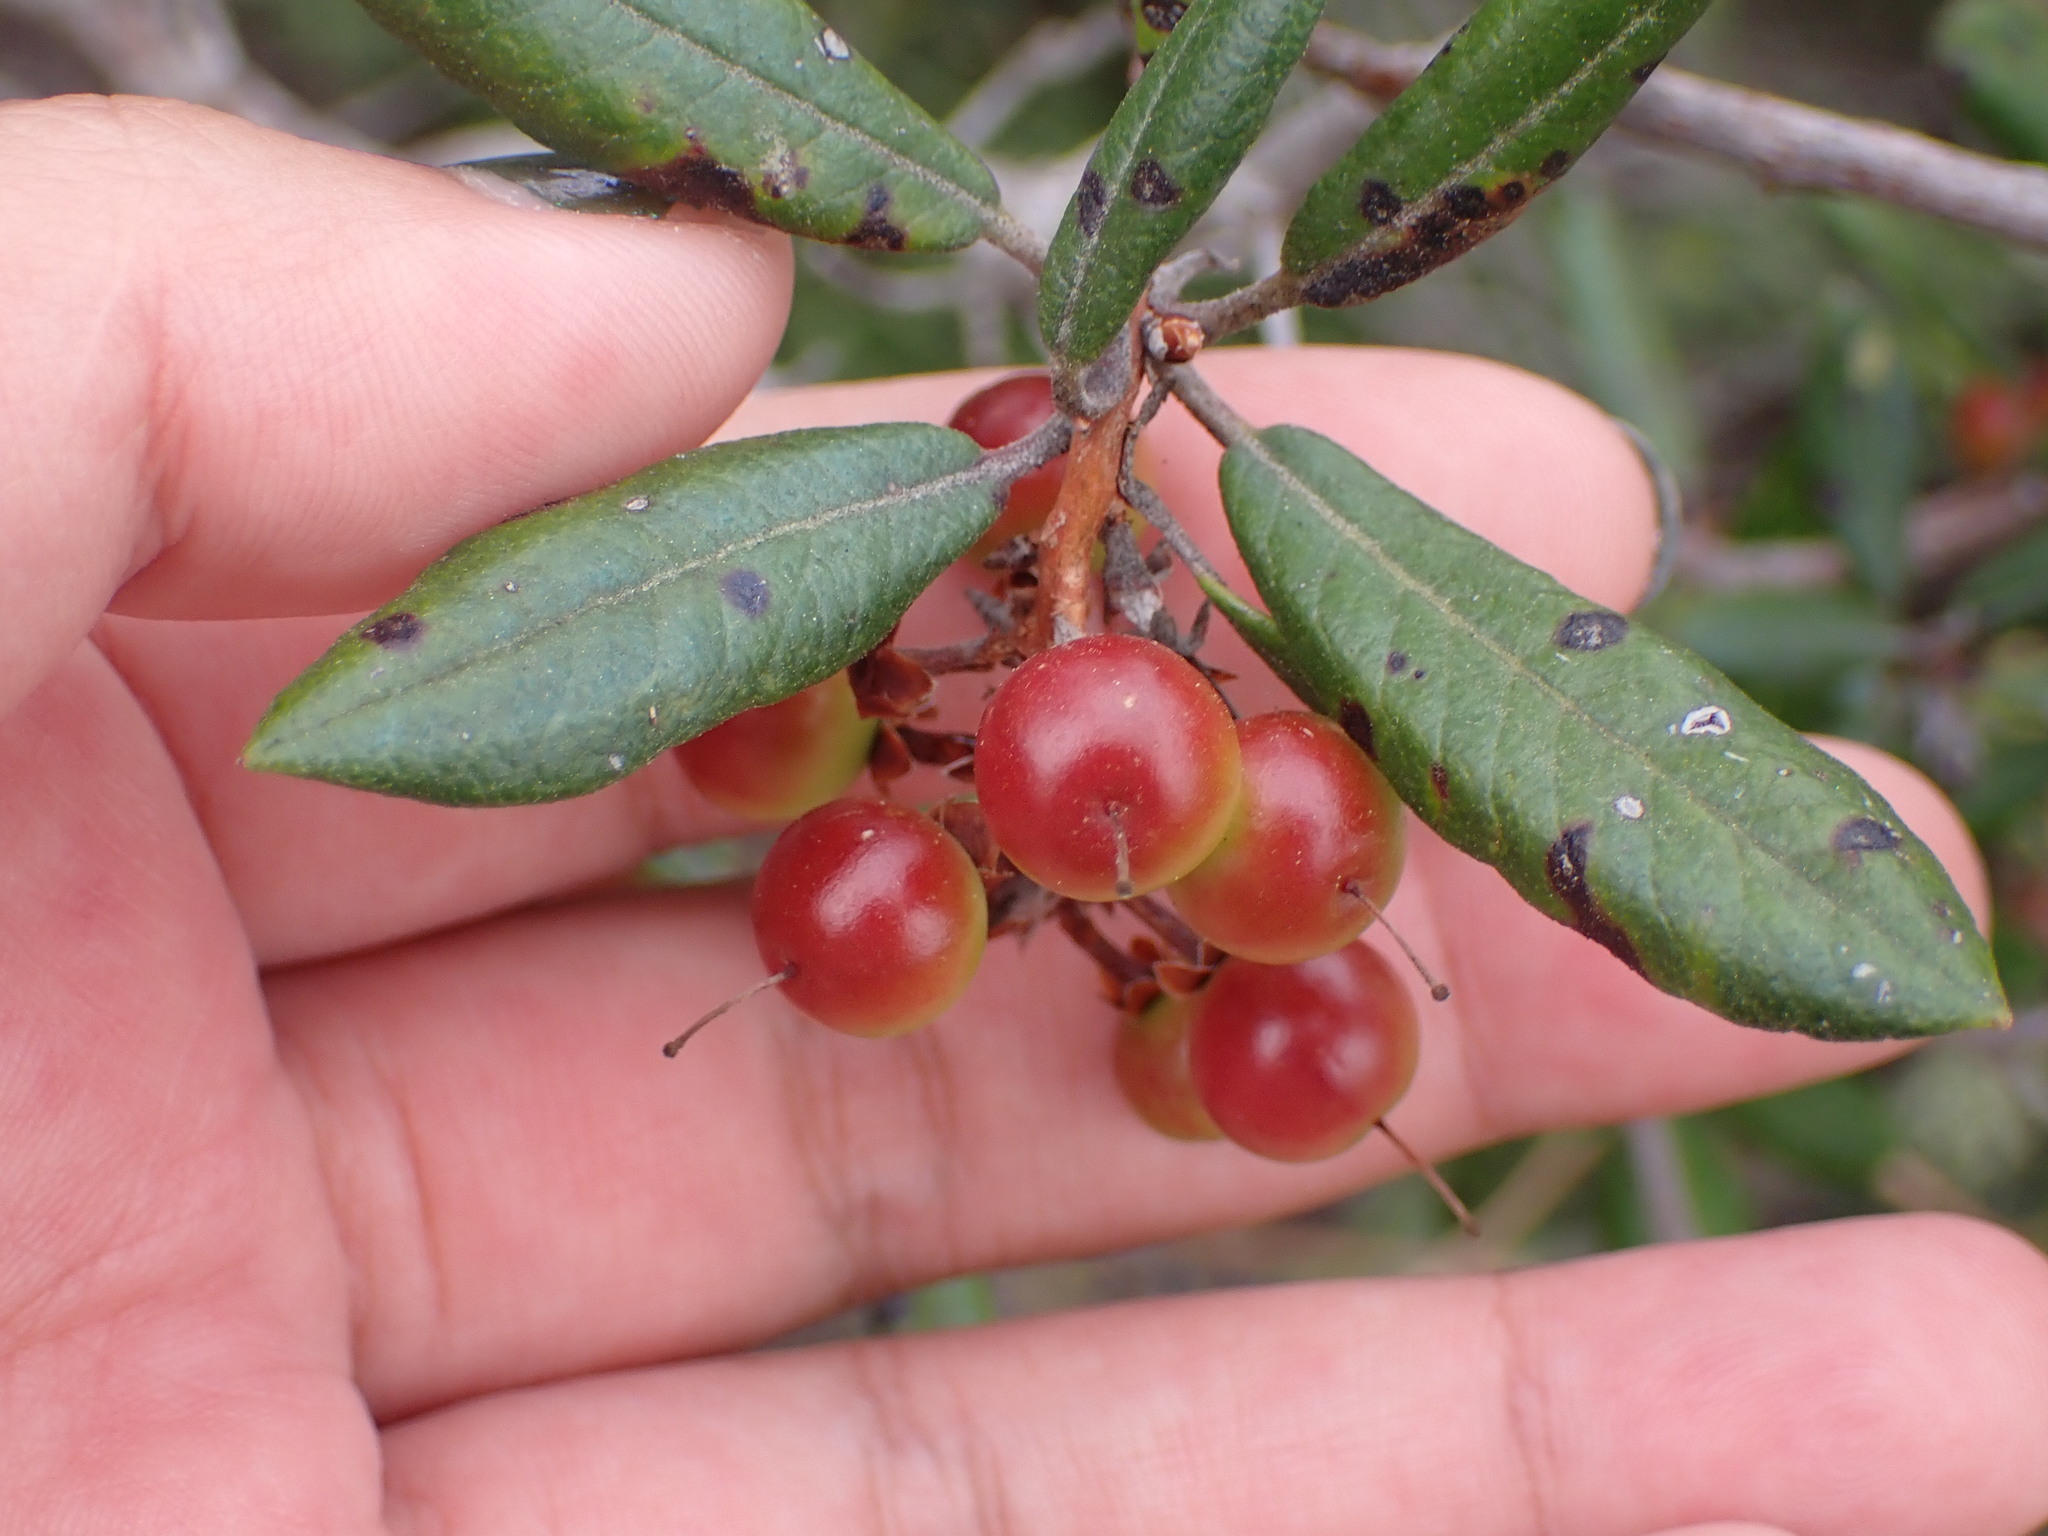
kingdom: Plantae
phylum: Tracheophyta
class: Magnoliopsida
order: Ericales
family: Ericaceae
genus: Arctostaphylos
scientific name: Arctostaphylos bicolor
